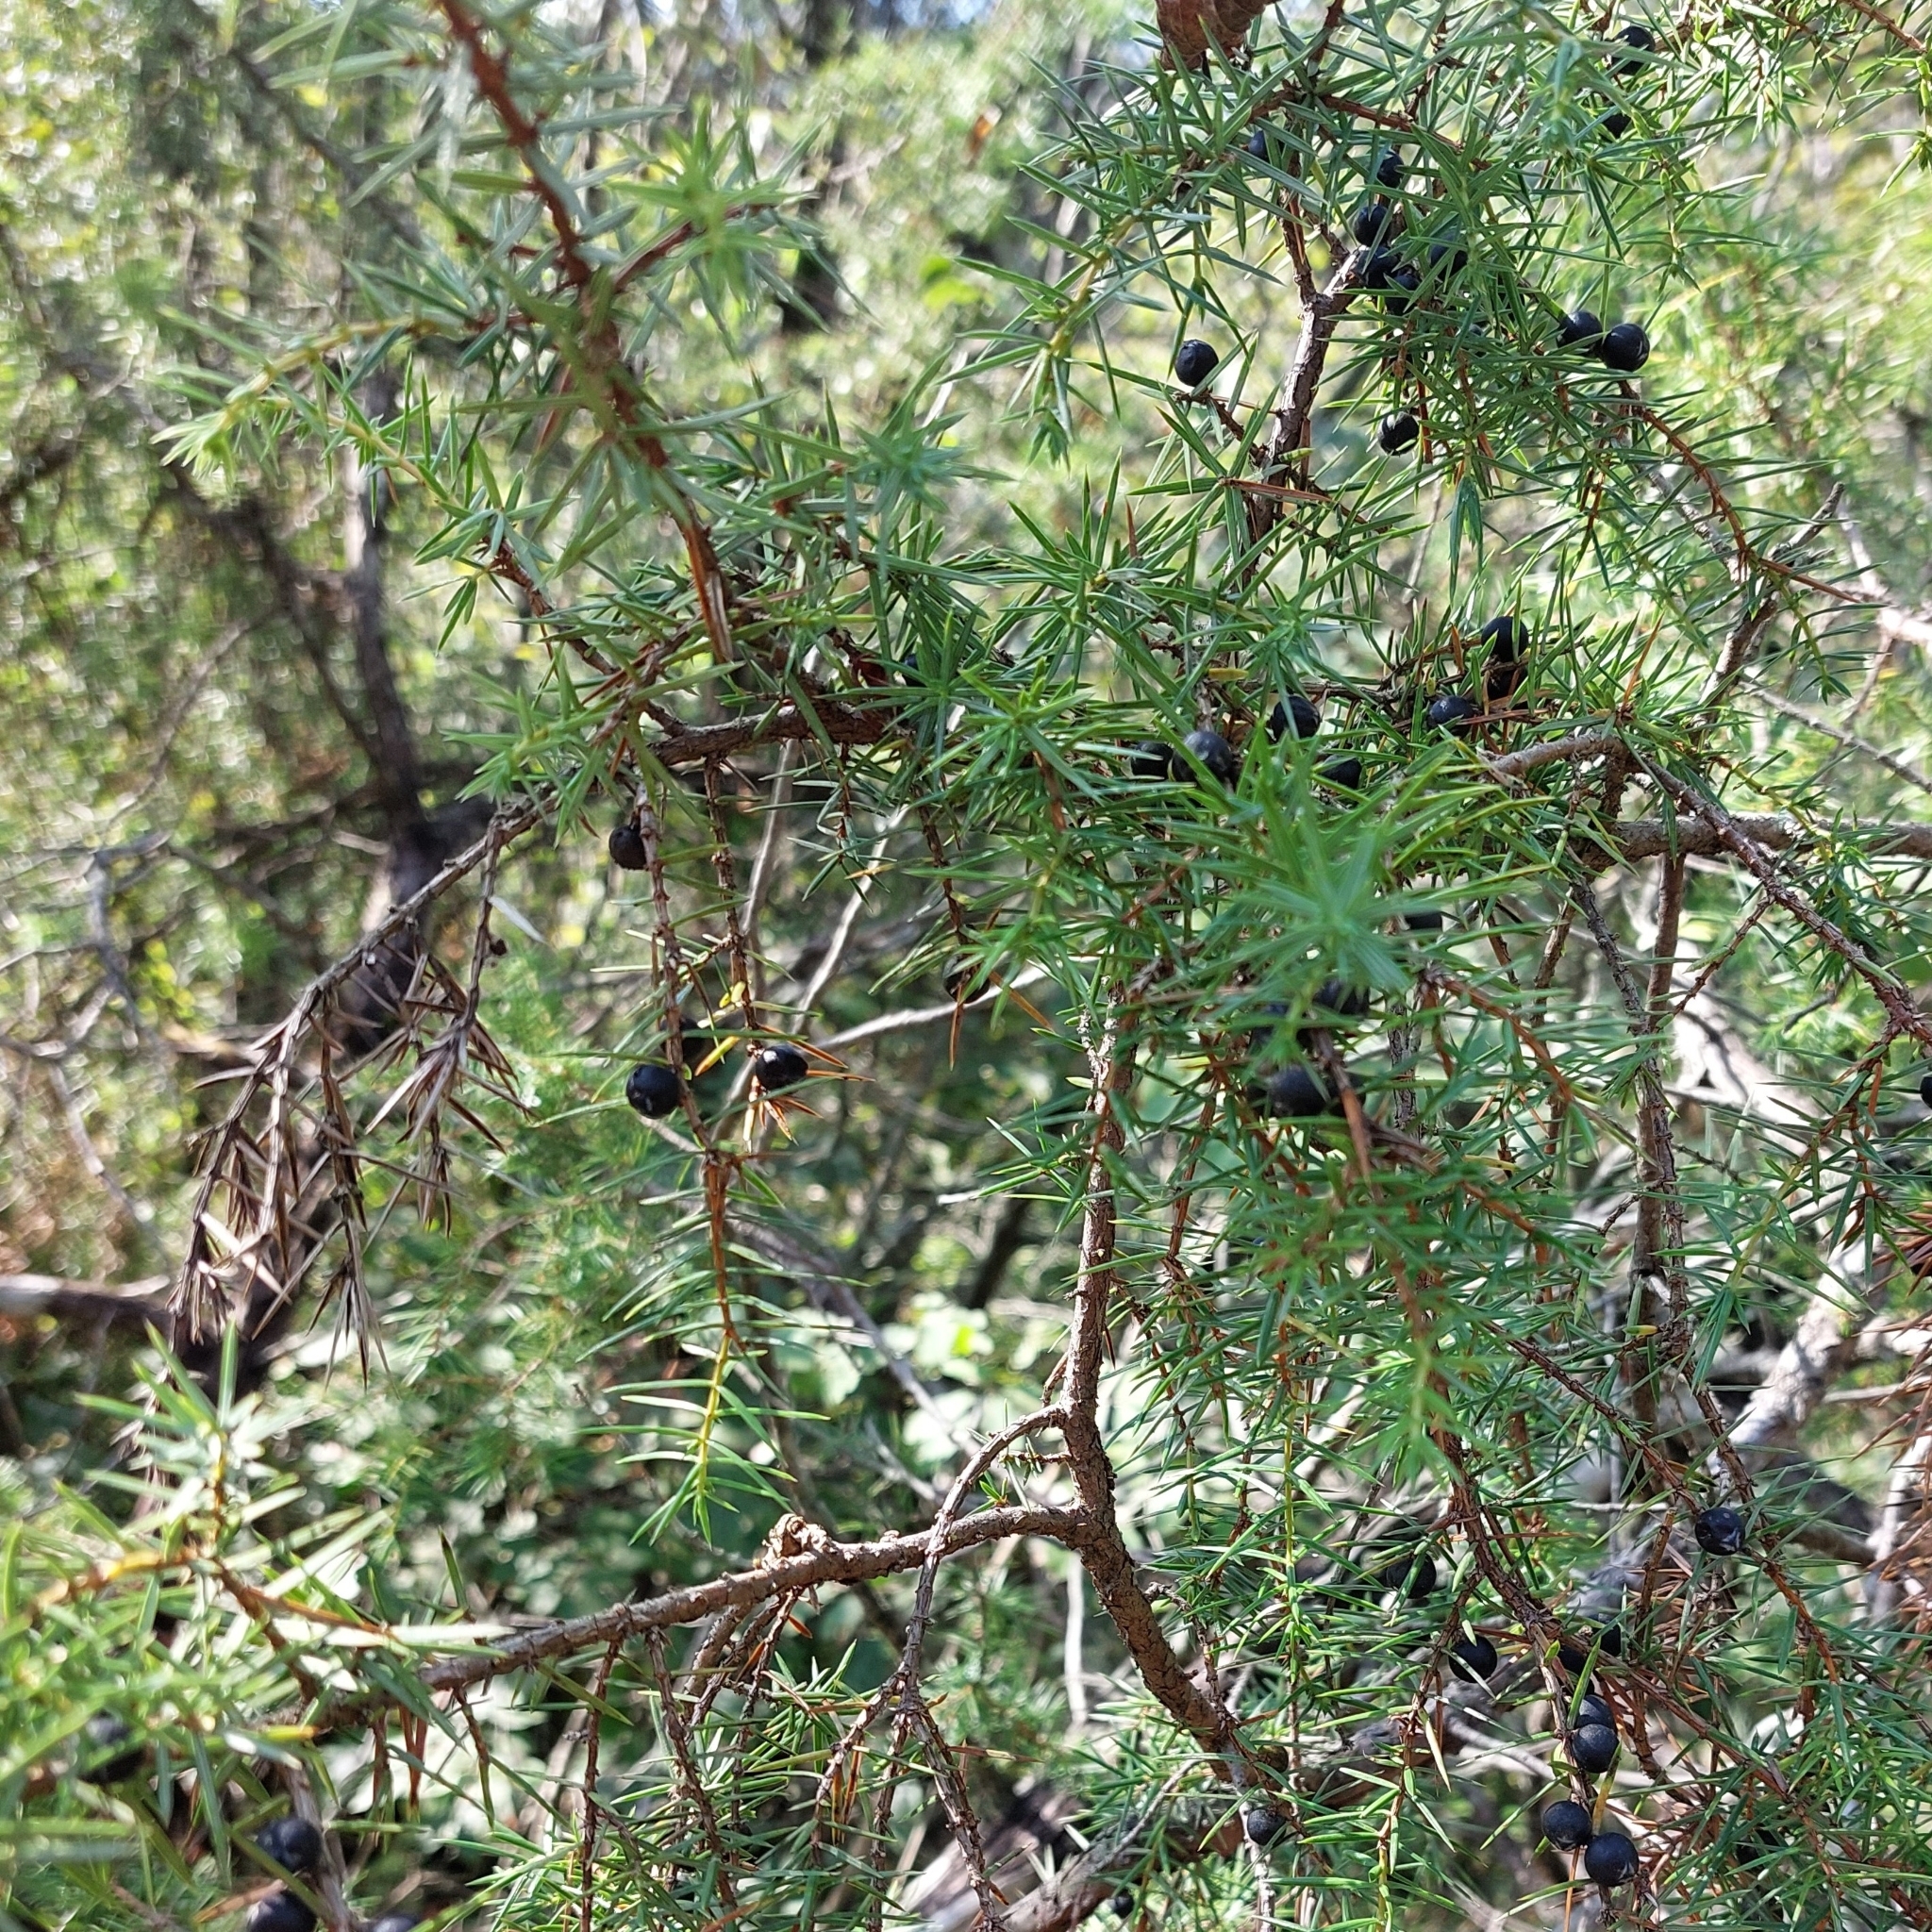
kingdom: Plantae
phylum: Tracheophyta
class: Pinopsida
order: Pinales
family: Cupressaceae
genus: Juniperus
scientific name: Juniperus communis
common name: Common juniper
